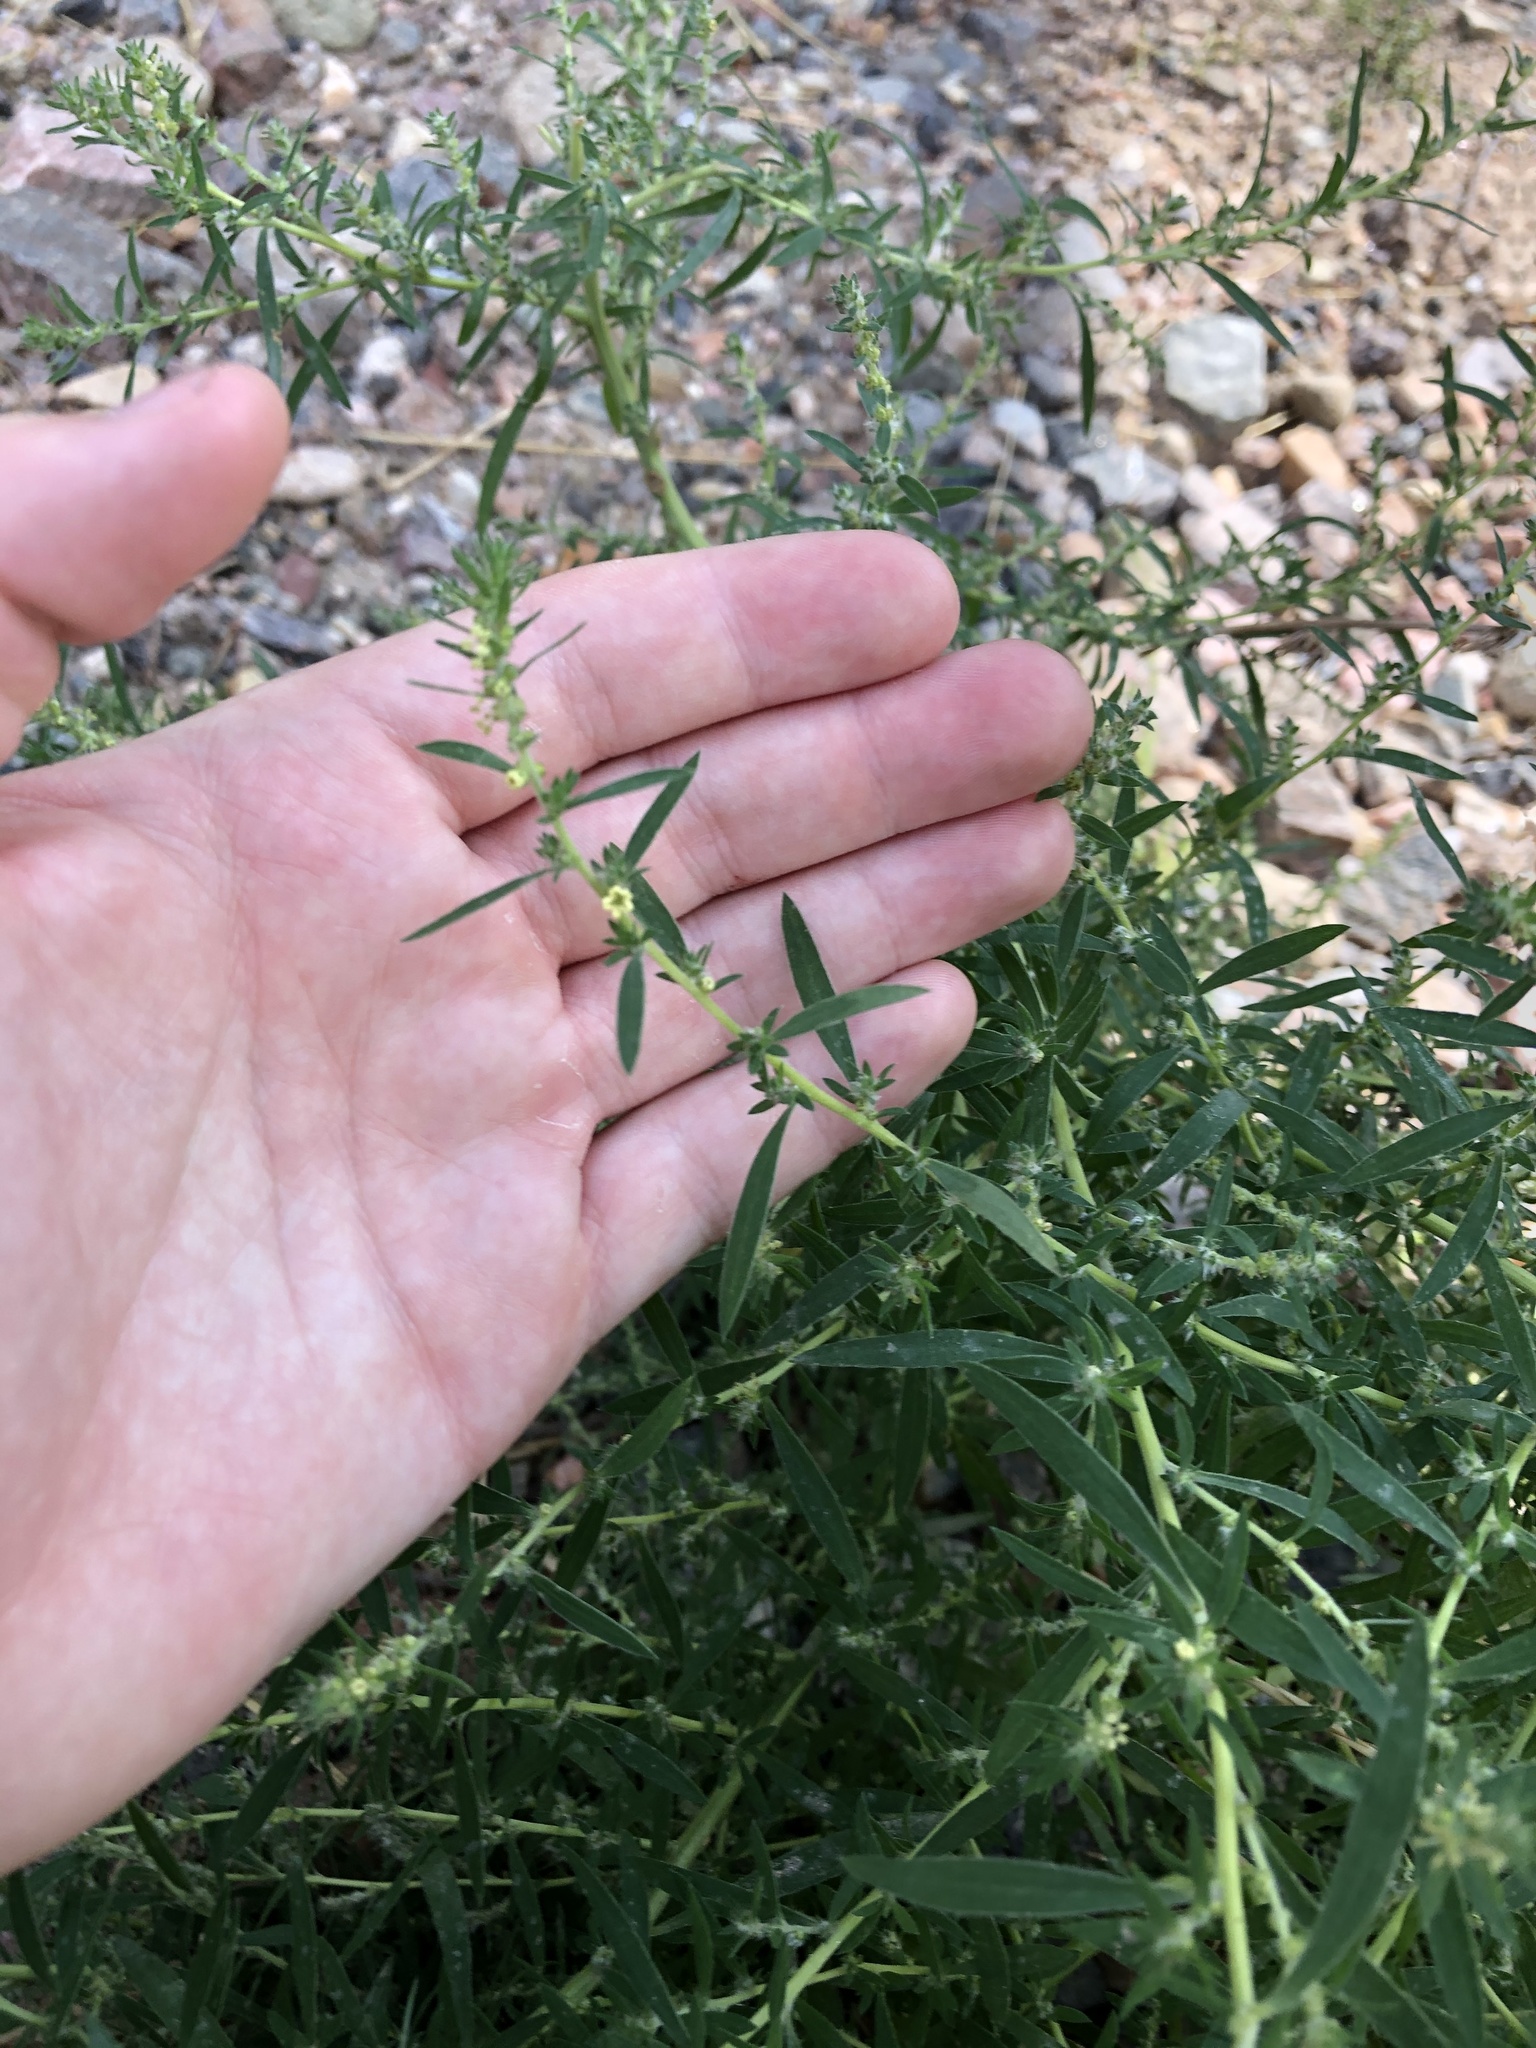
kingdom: Plantae
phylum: Tracheophyta
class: Magnoliopsida
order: Caryophyllales
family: Amaranthaceae
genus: Bassia
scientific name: Bassia scoparia
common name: Belvedere
